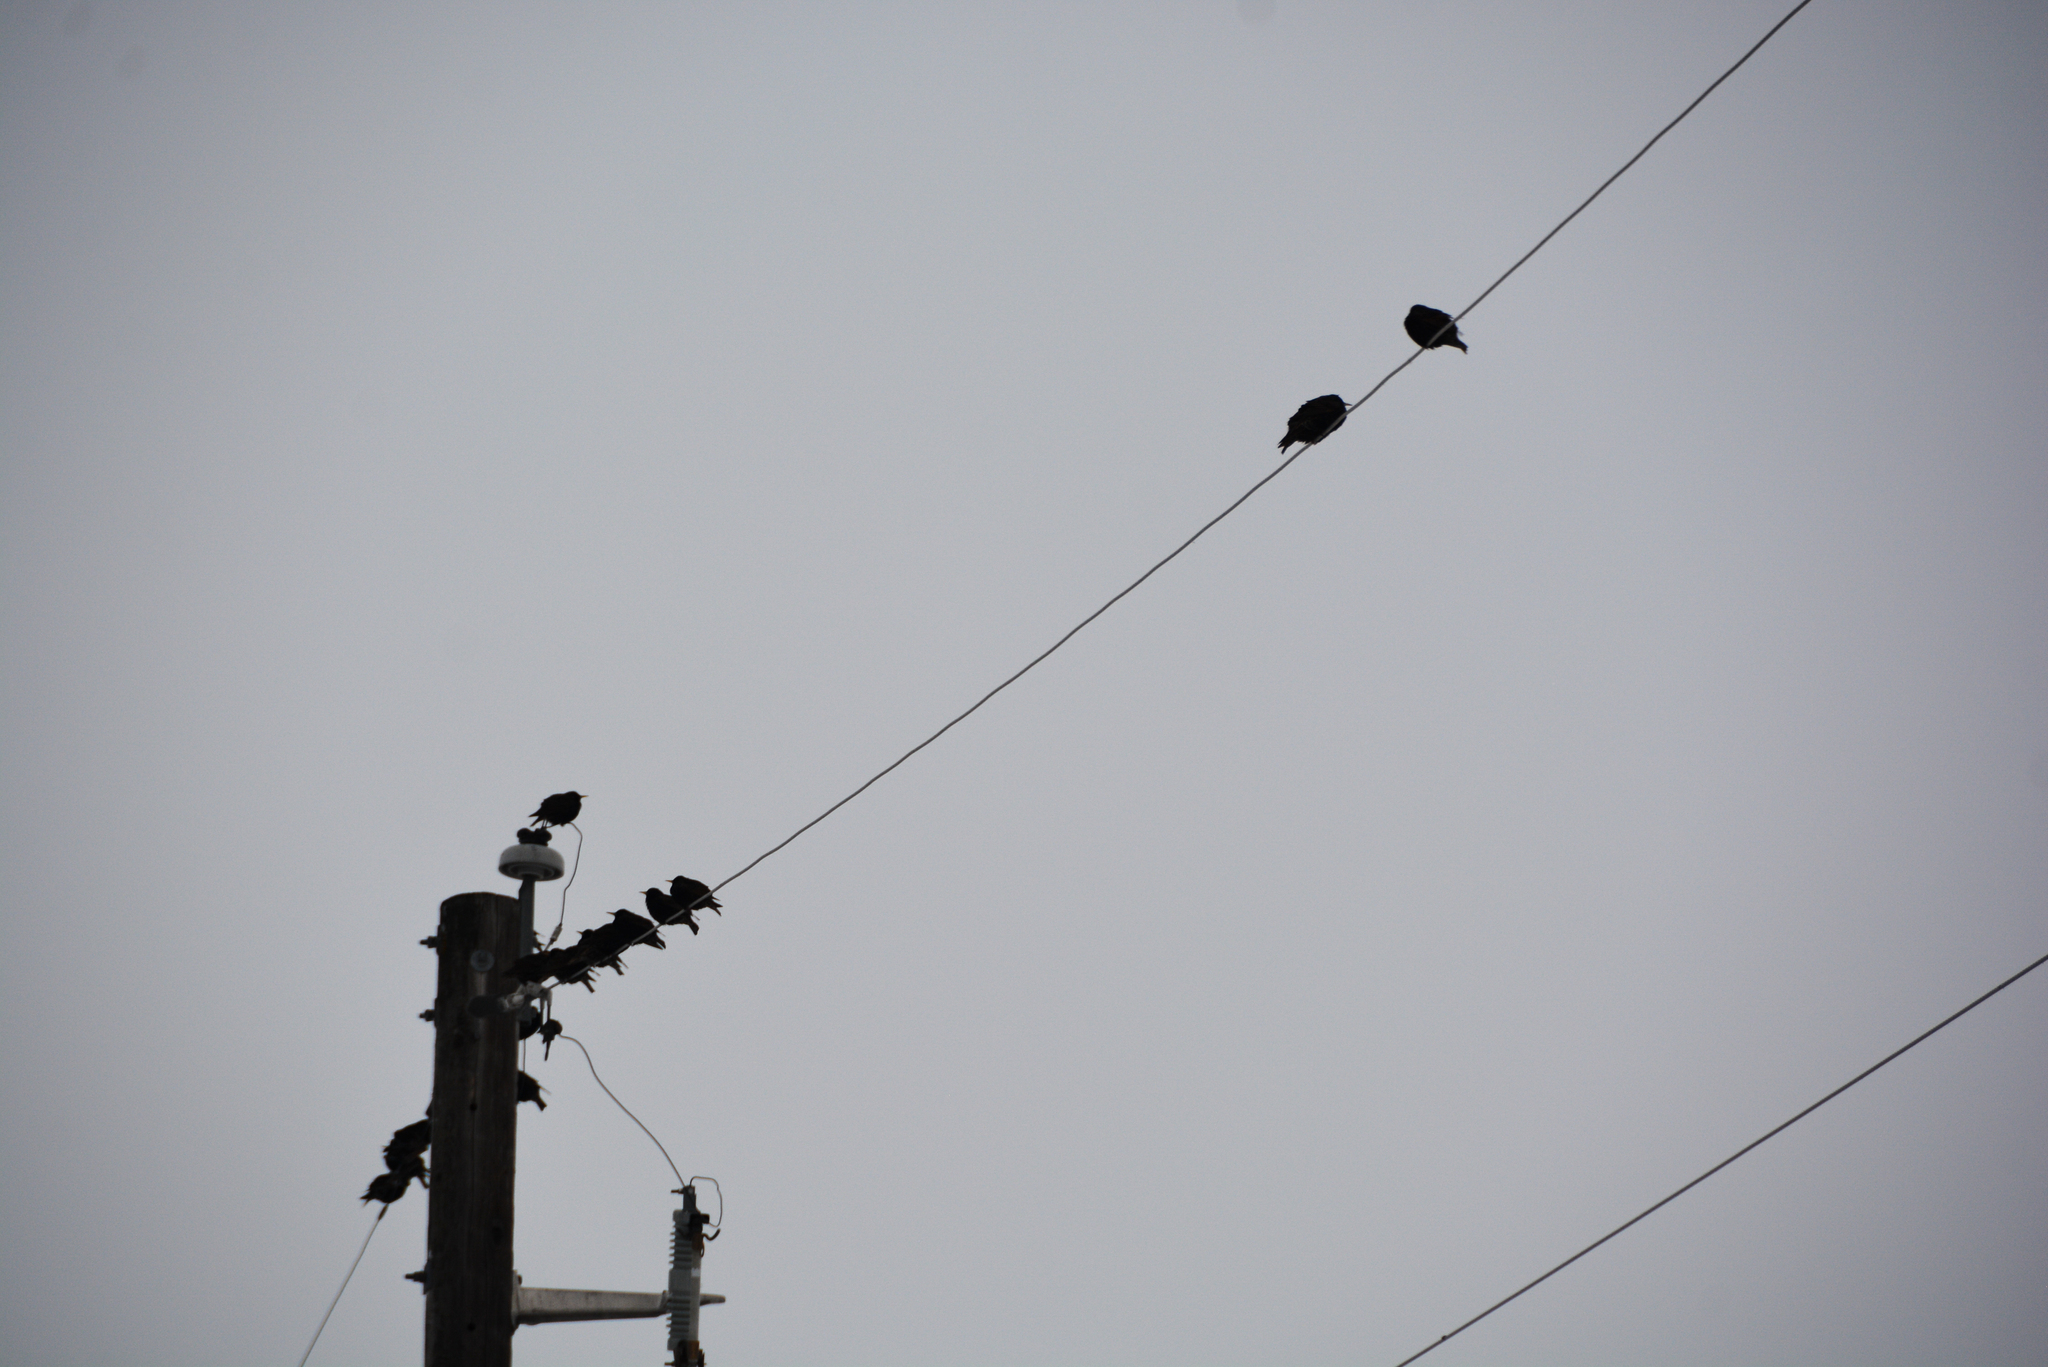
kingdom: Animalia
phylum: Chordata
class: Aves
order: Passeriformes
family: Sturnidae
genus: Sturnus
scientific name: Sturnus vulgaris
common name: Common starling
